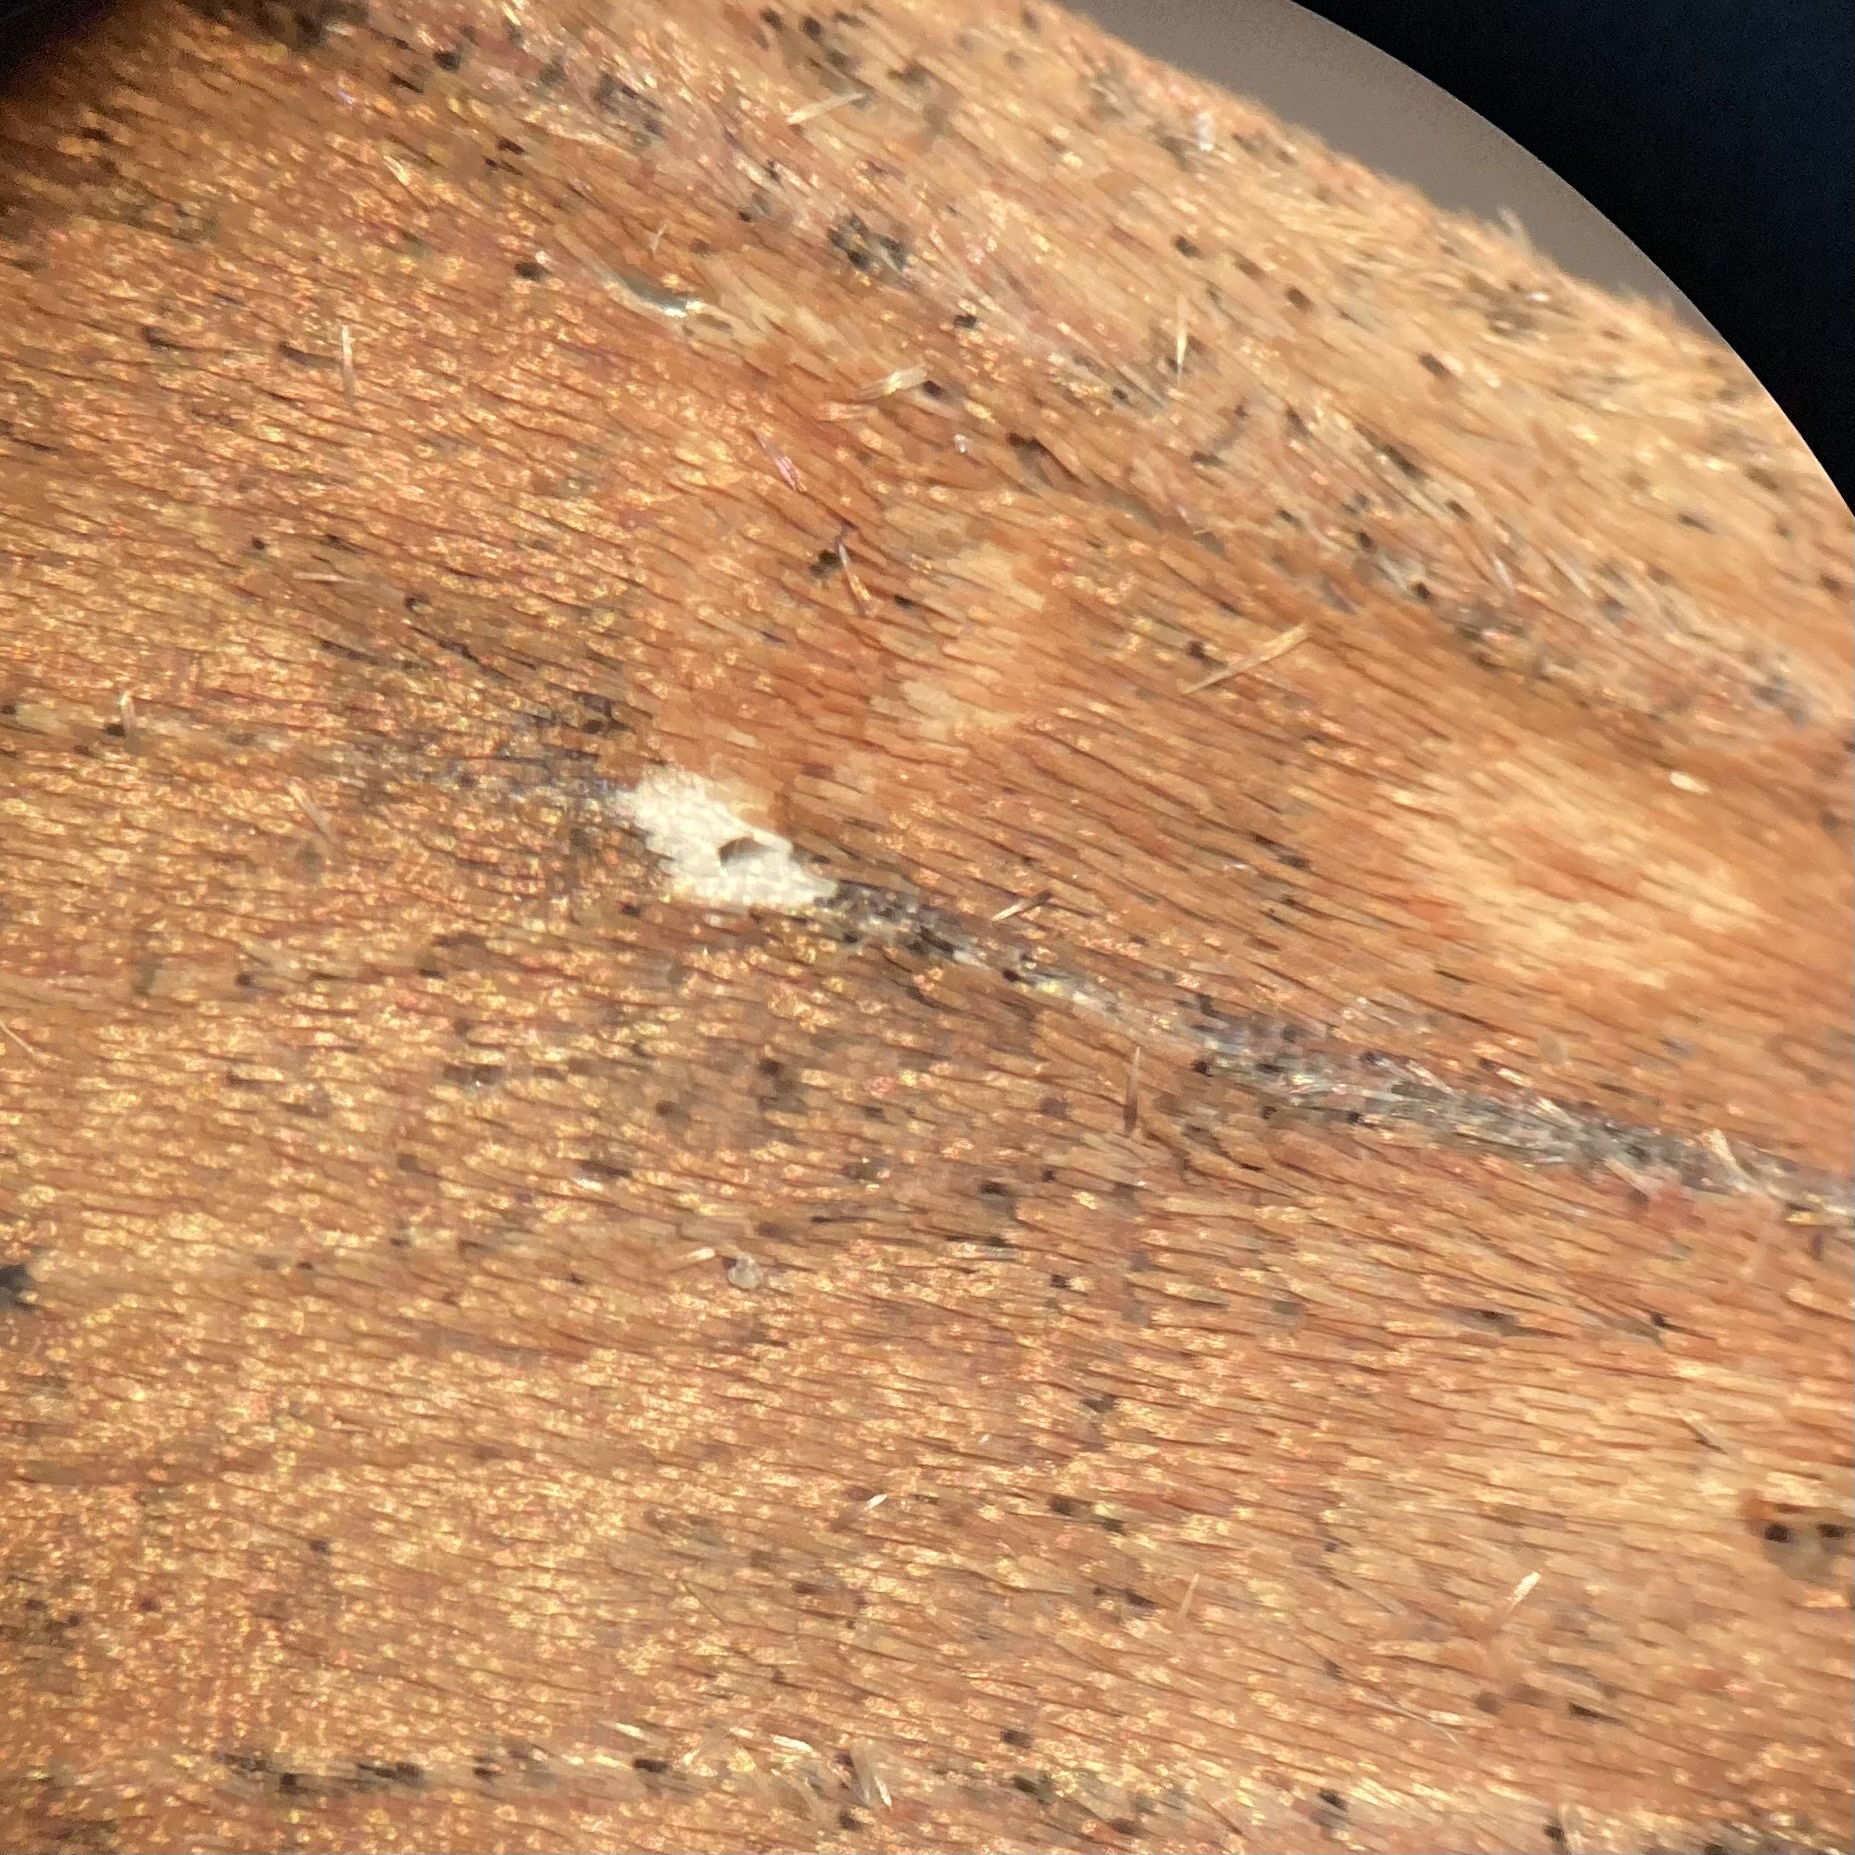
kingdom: Animalia
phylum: Arthropoda
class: Insecta
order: Lepidoptera
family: Noctuidae
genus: Mythimna
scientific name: Mythimna unipuncta
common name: White-speck
